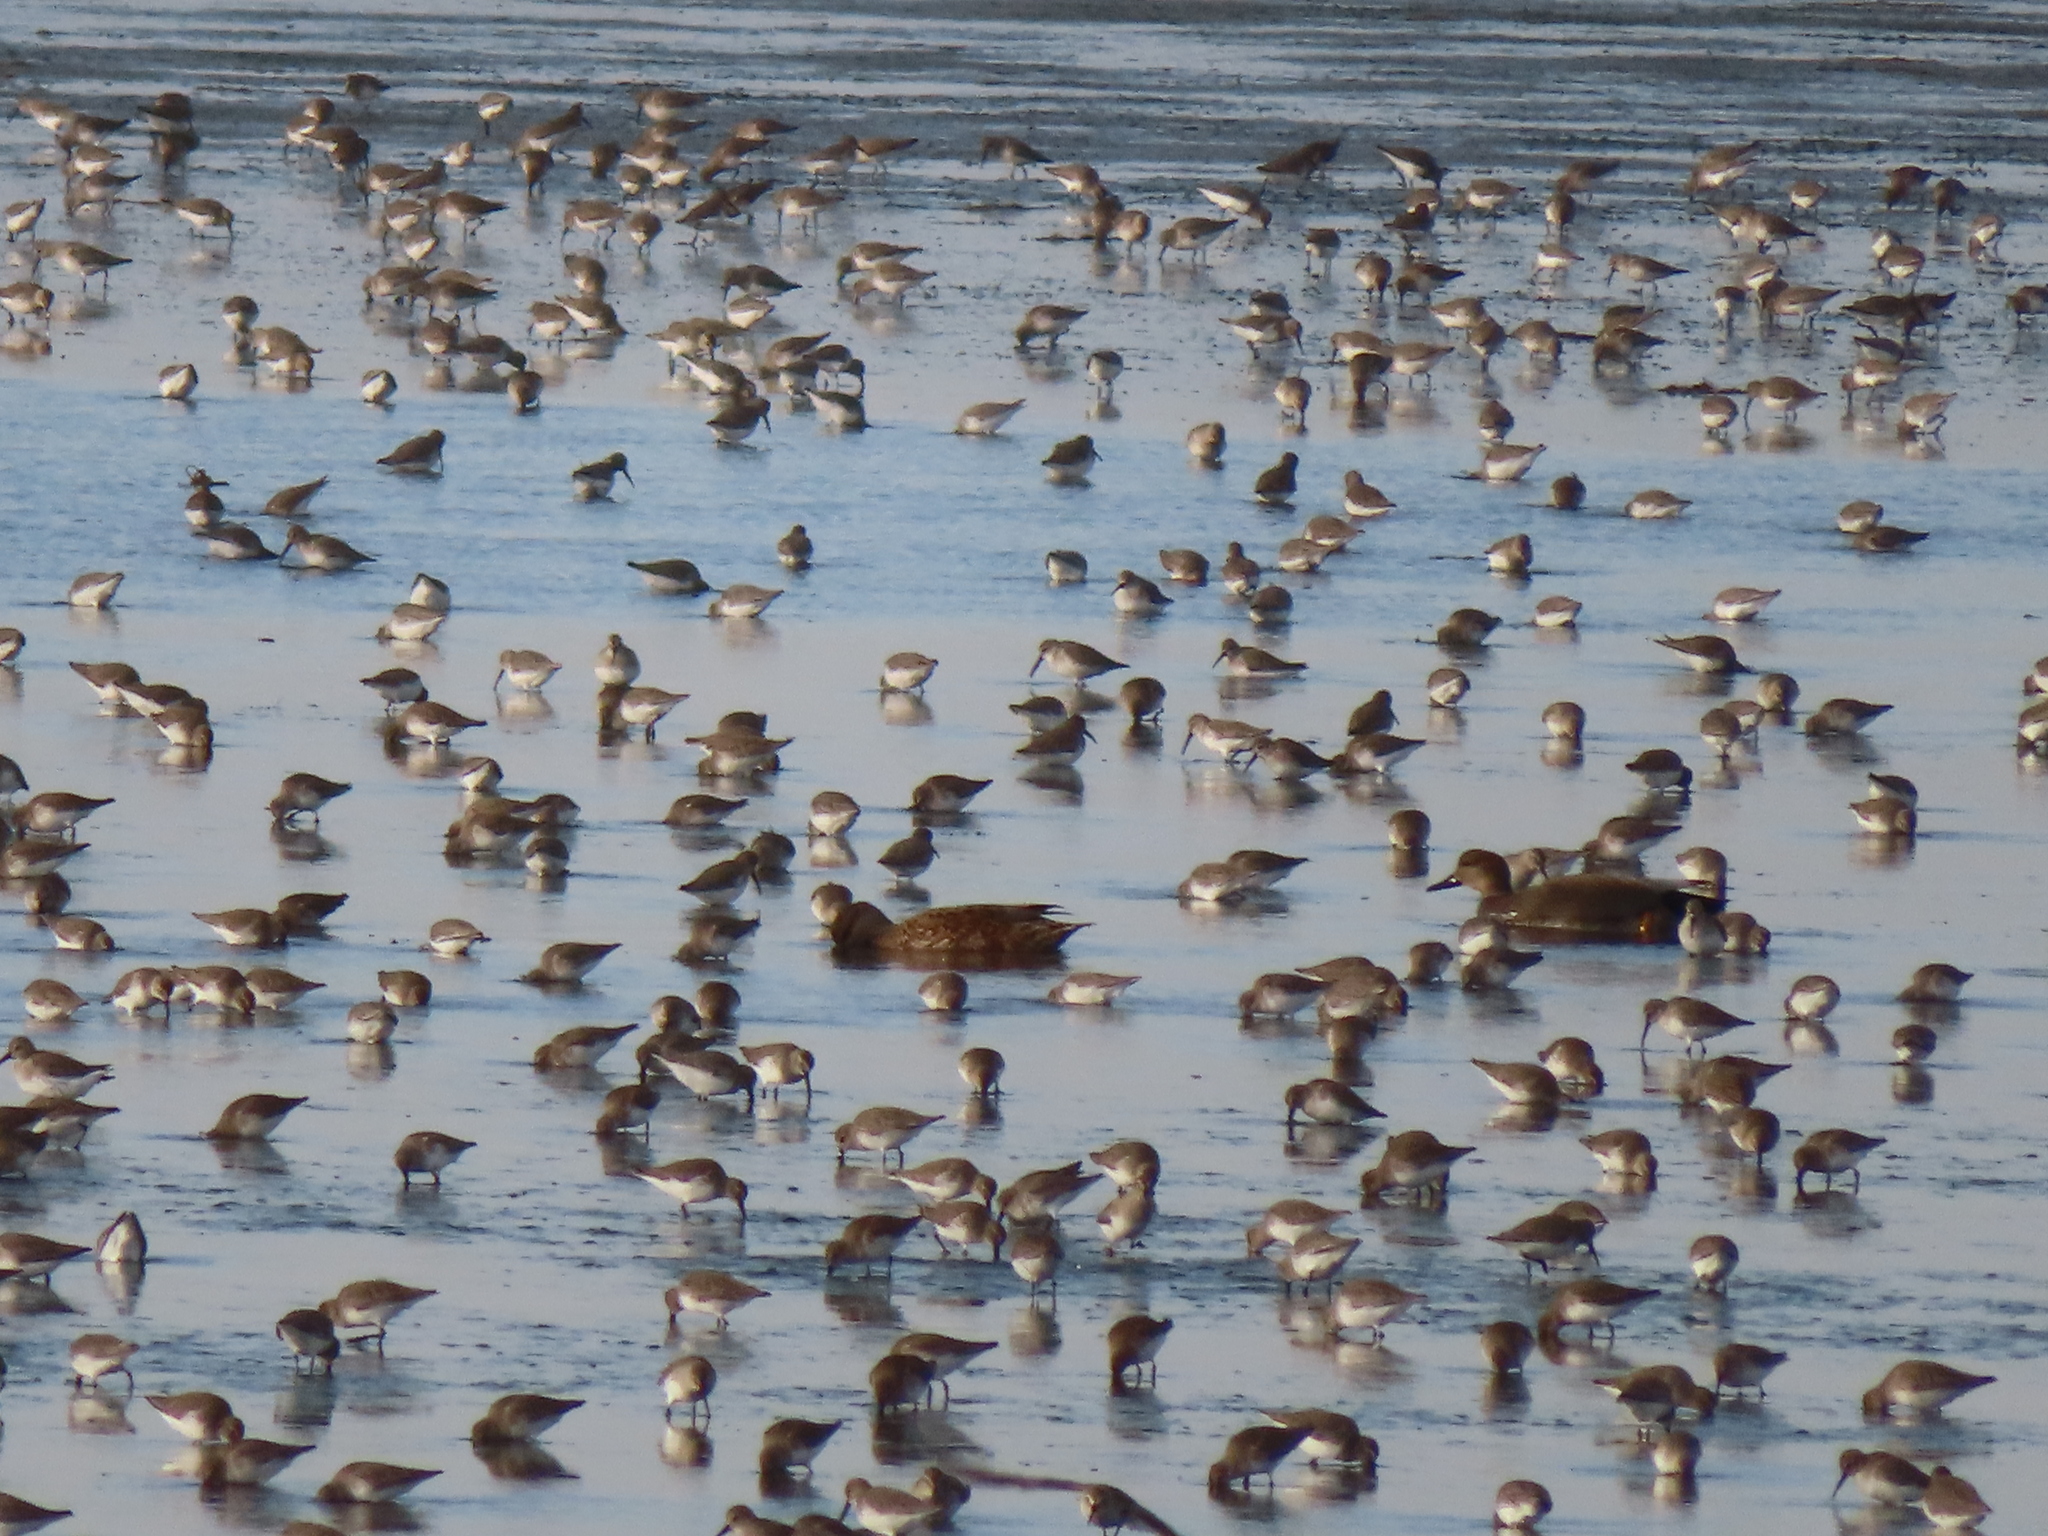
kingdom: Animalia
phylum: Chordata
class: Aves
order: Charadriiformes
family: Scolopacidae
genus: Calidris
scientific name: Calidris alpina
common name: Dunlin
